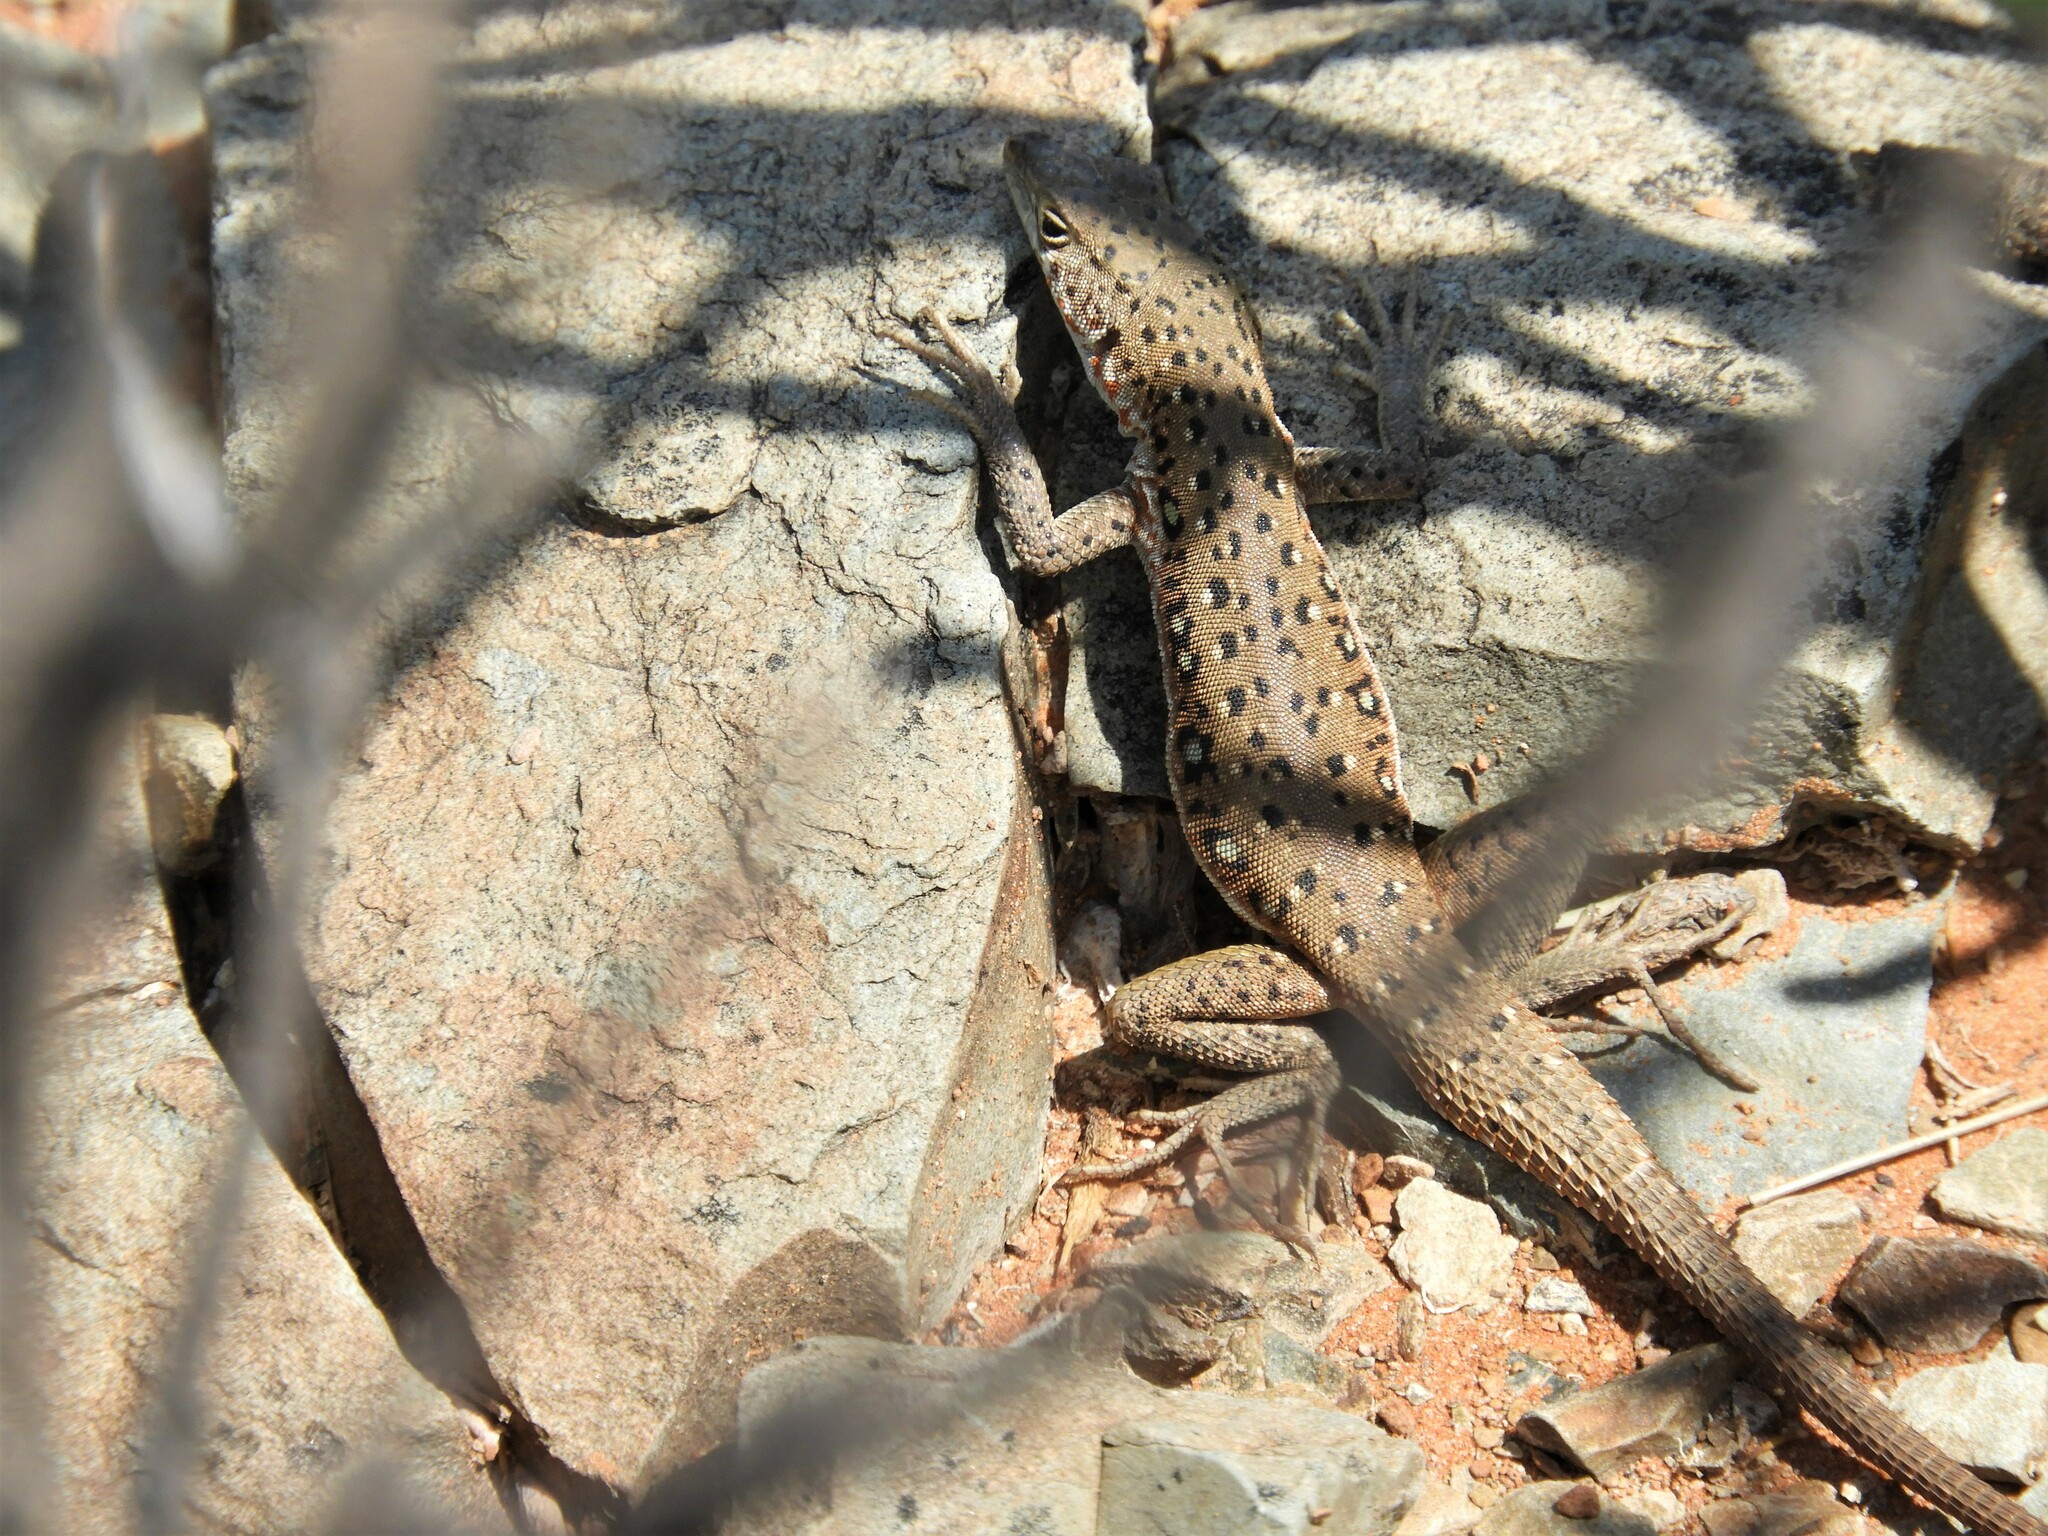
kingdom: Animalia
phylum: Chordata
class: Squamata
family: Lacertidae
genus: Pedioplanis
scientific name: Pedioplanis lineoocellata
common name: Spotted sand lizard
